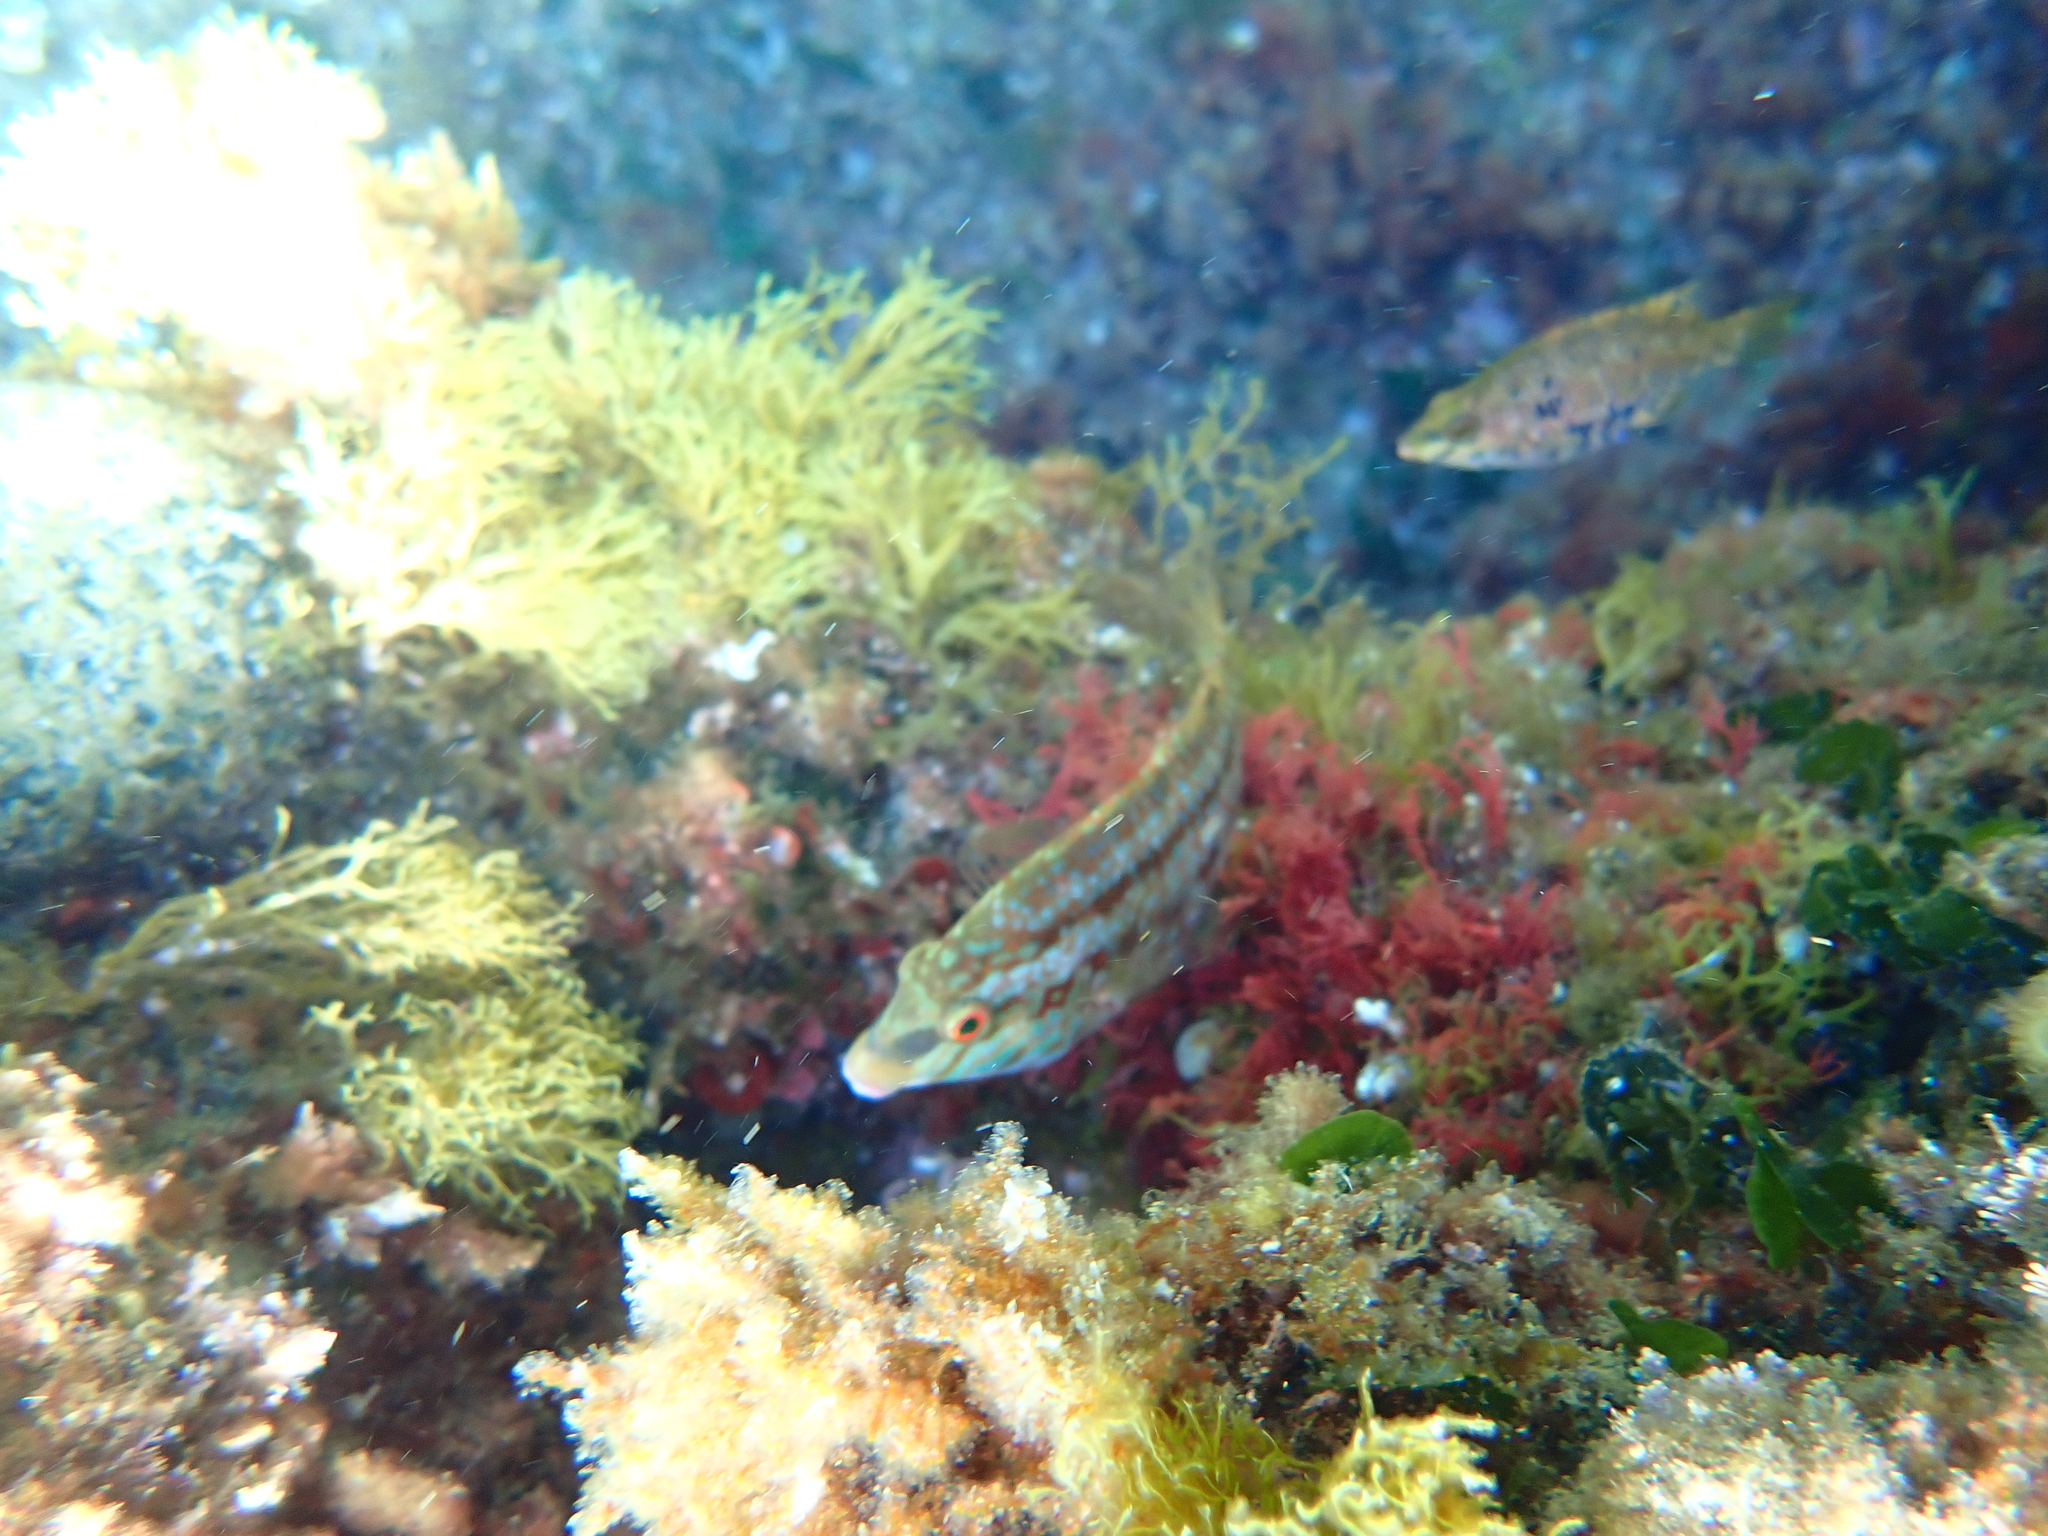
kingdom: Animalia
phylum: Chordata
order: Perciformes
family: Labridae
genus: Symphodus
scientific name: Symphodus roissali
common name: Five-spotted wrasse
